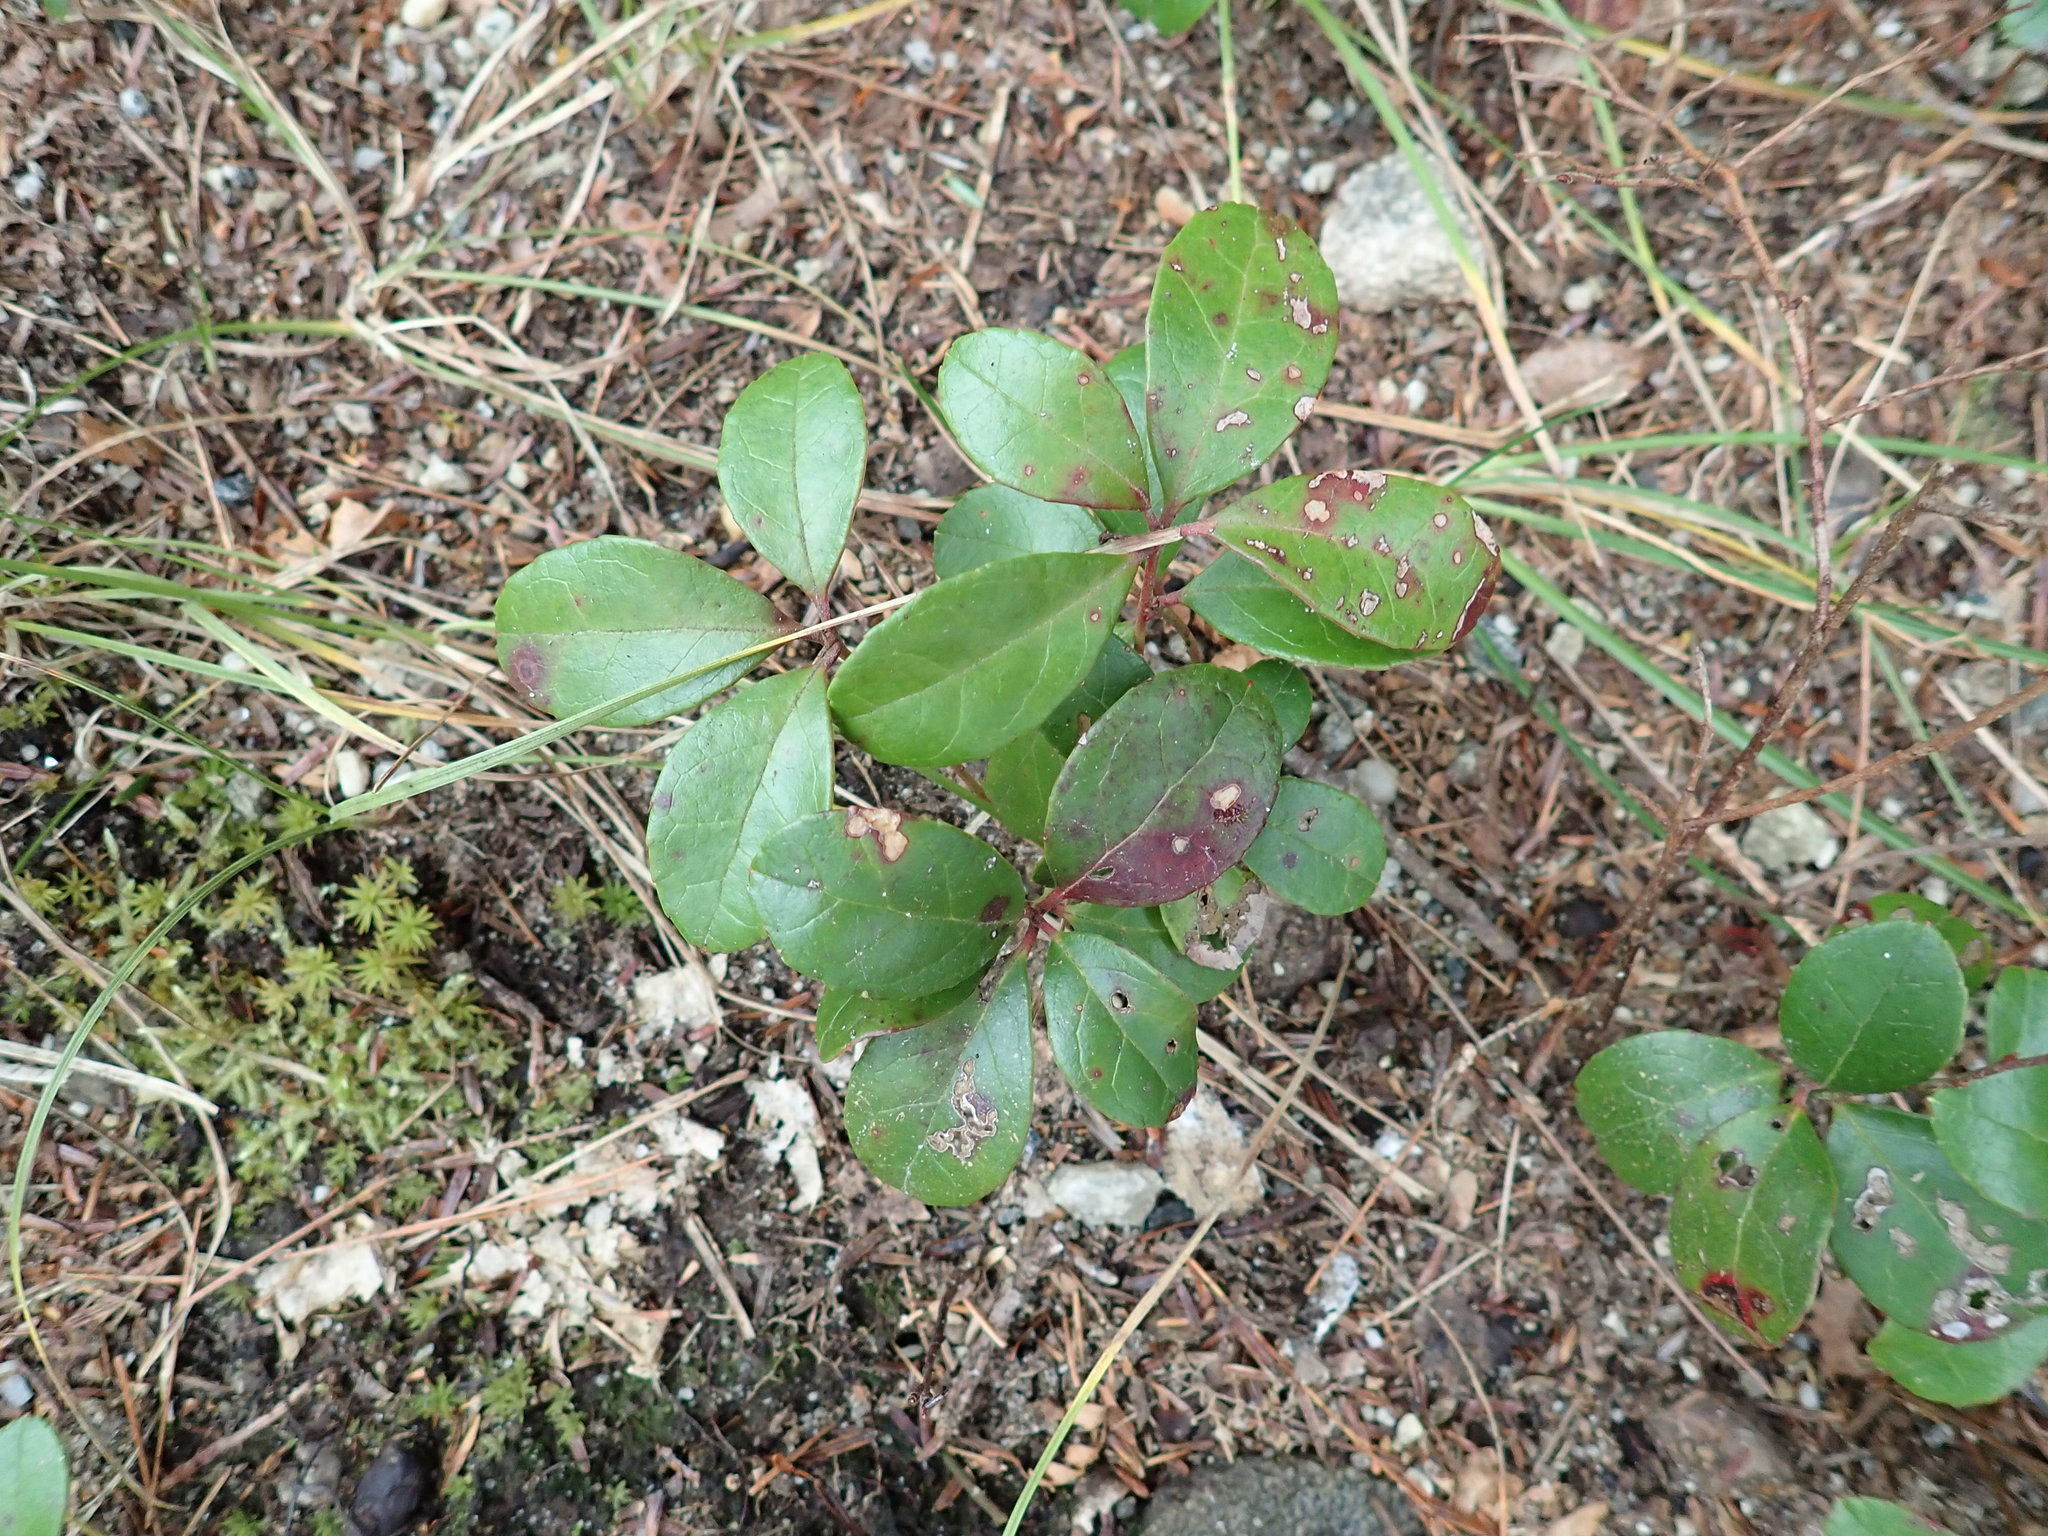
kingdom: Plantae
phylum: Tracheophyta
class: Magnoliopsida
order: Ericales
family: Ericaceae
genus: Gaultheria
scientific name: Gaultheria procumbens
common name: Checkerberry
